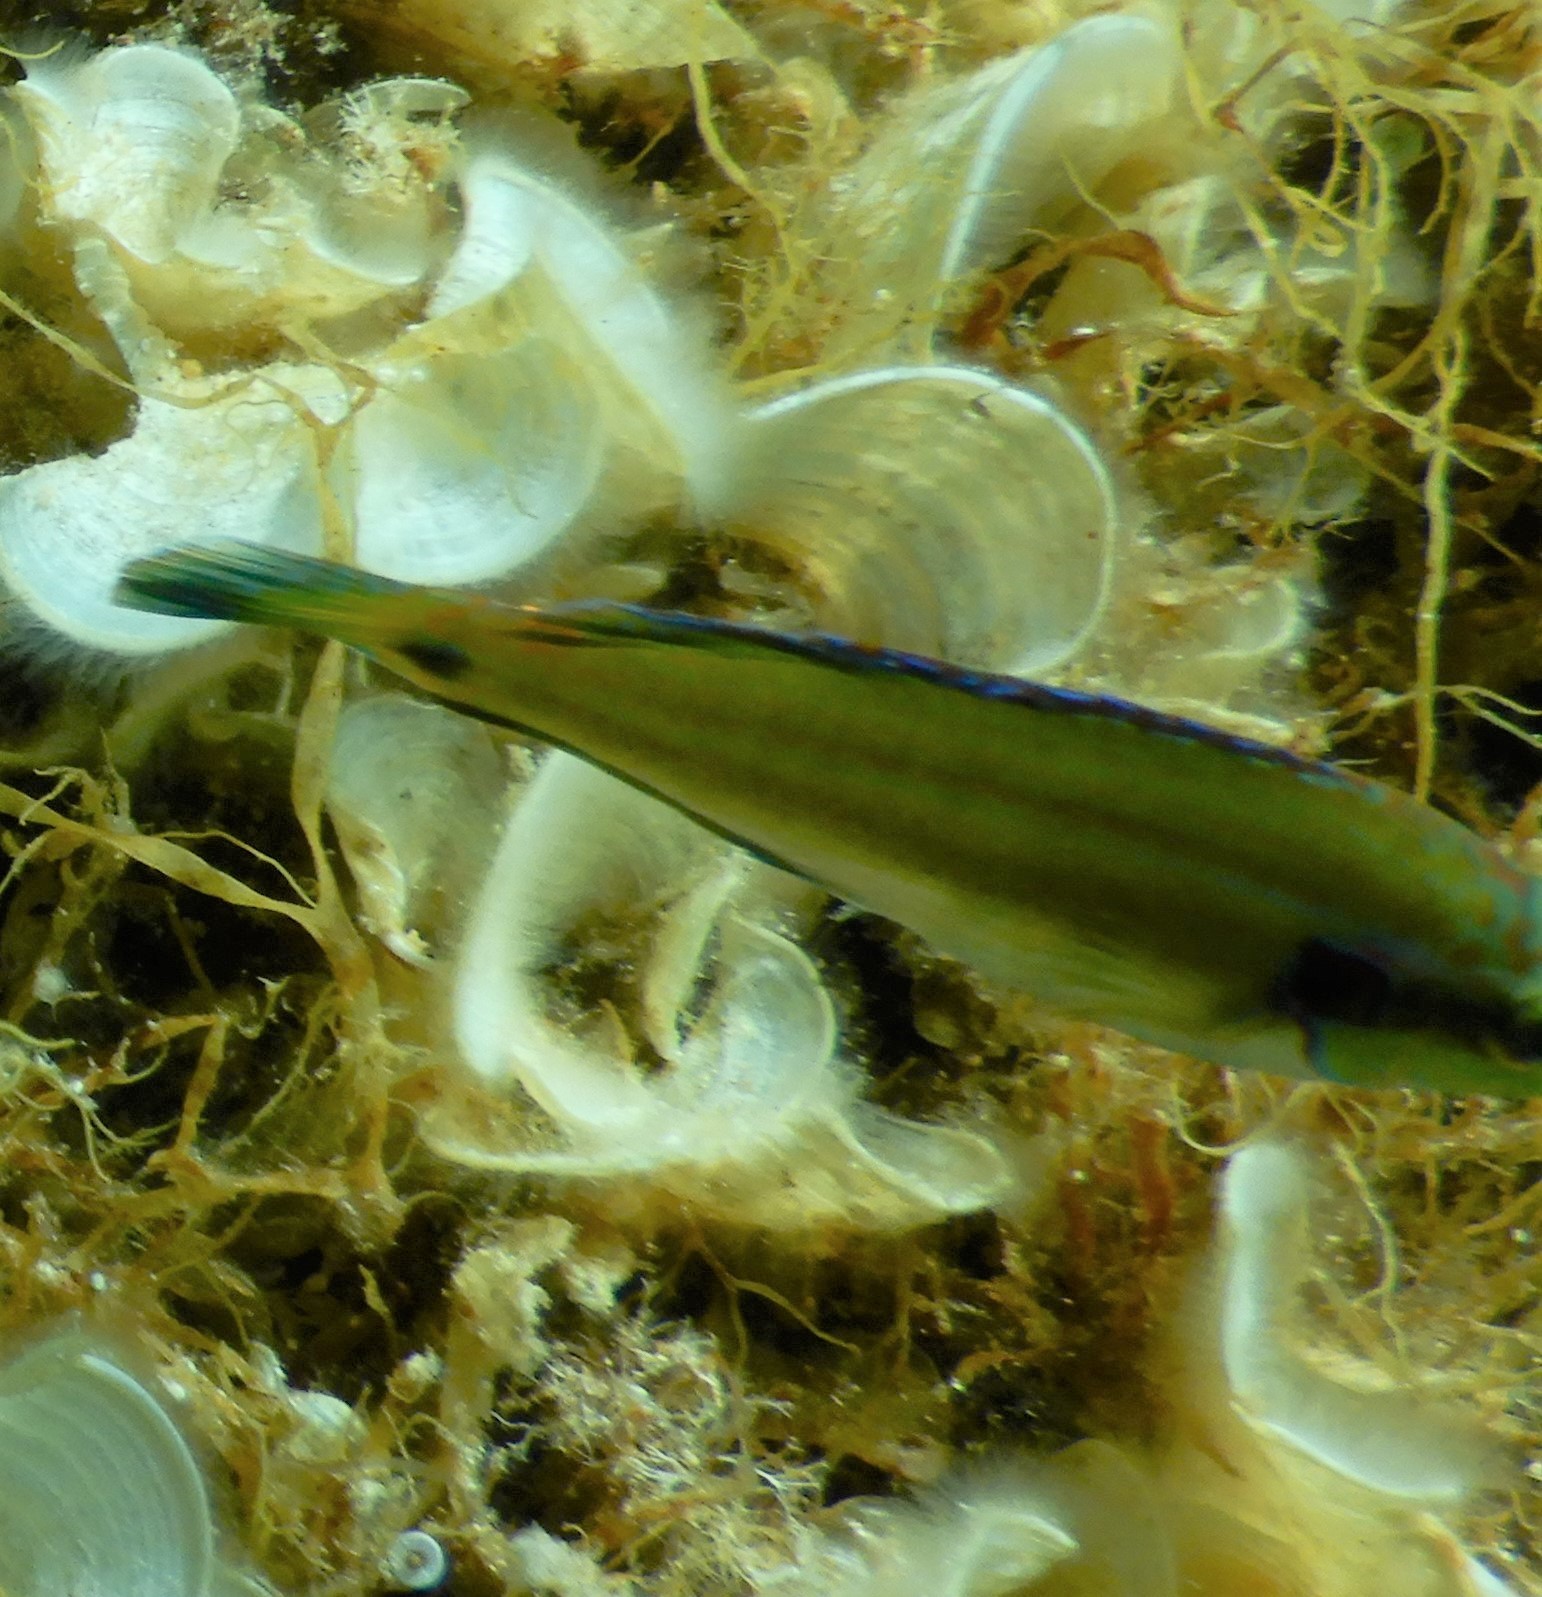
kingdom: Animalia
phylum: Chordata
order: Perciformes
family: Labridae
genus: Symphodus
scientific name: Symphodus ocellatus
